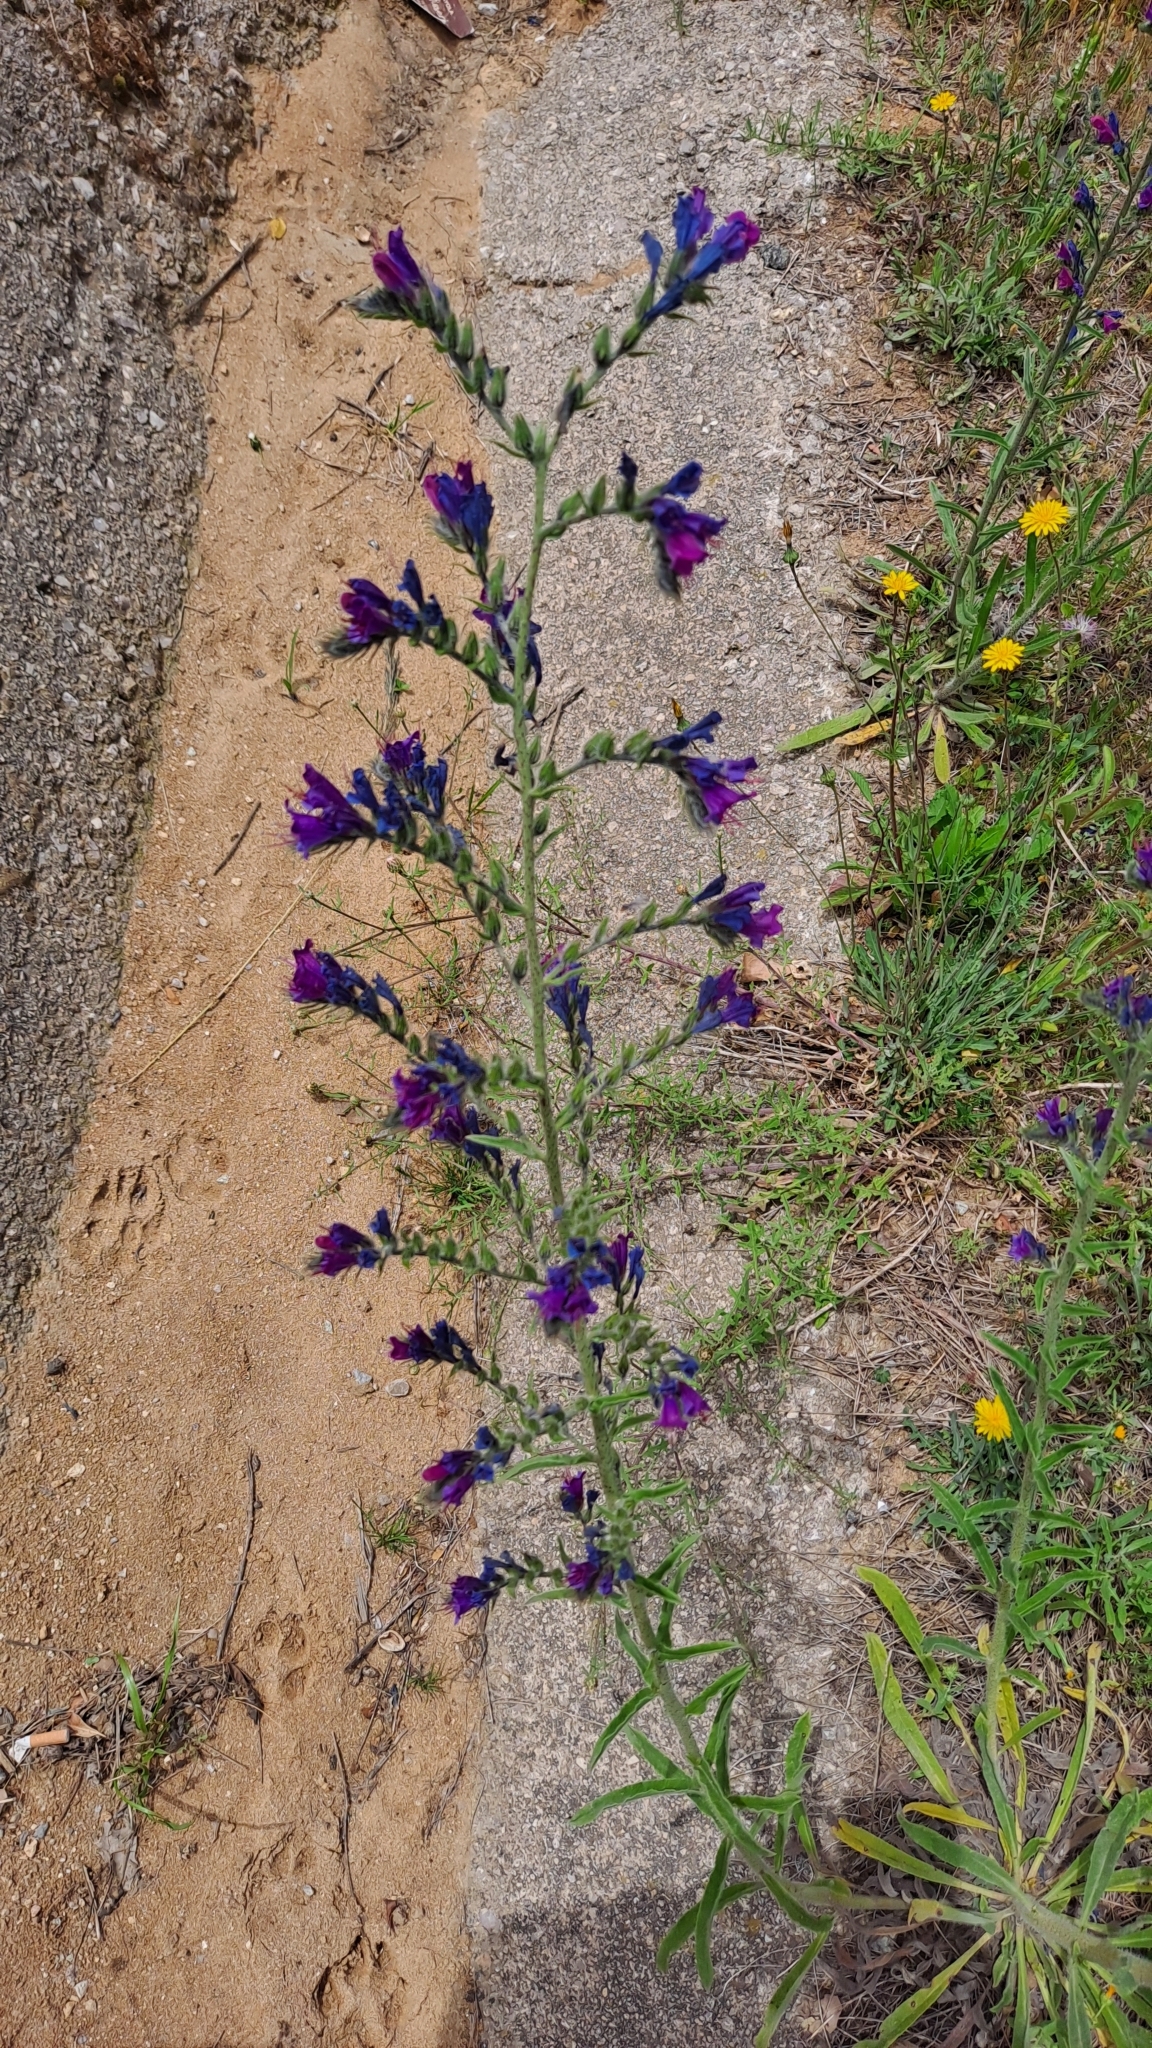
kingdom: Plantae
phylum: Tracheophyta
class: Magnoliopsida
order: Boraginales
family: Boraginaceae
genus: Echium
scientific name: Echium vulgare
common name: Common viper's bugloss
